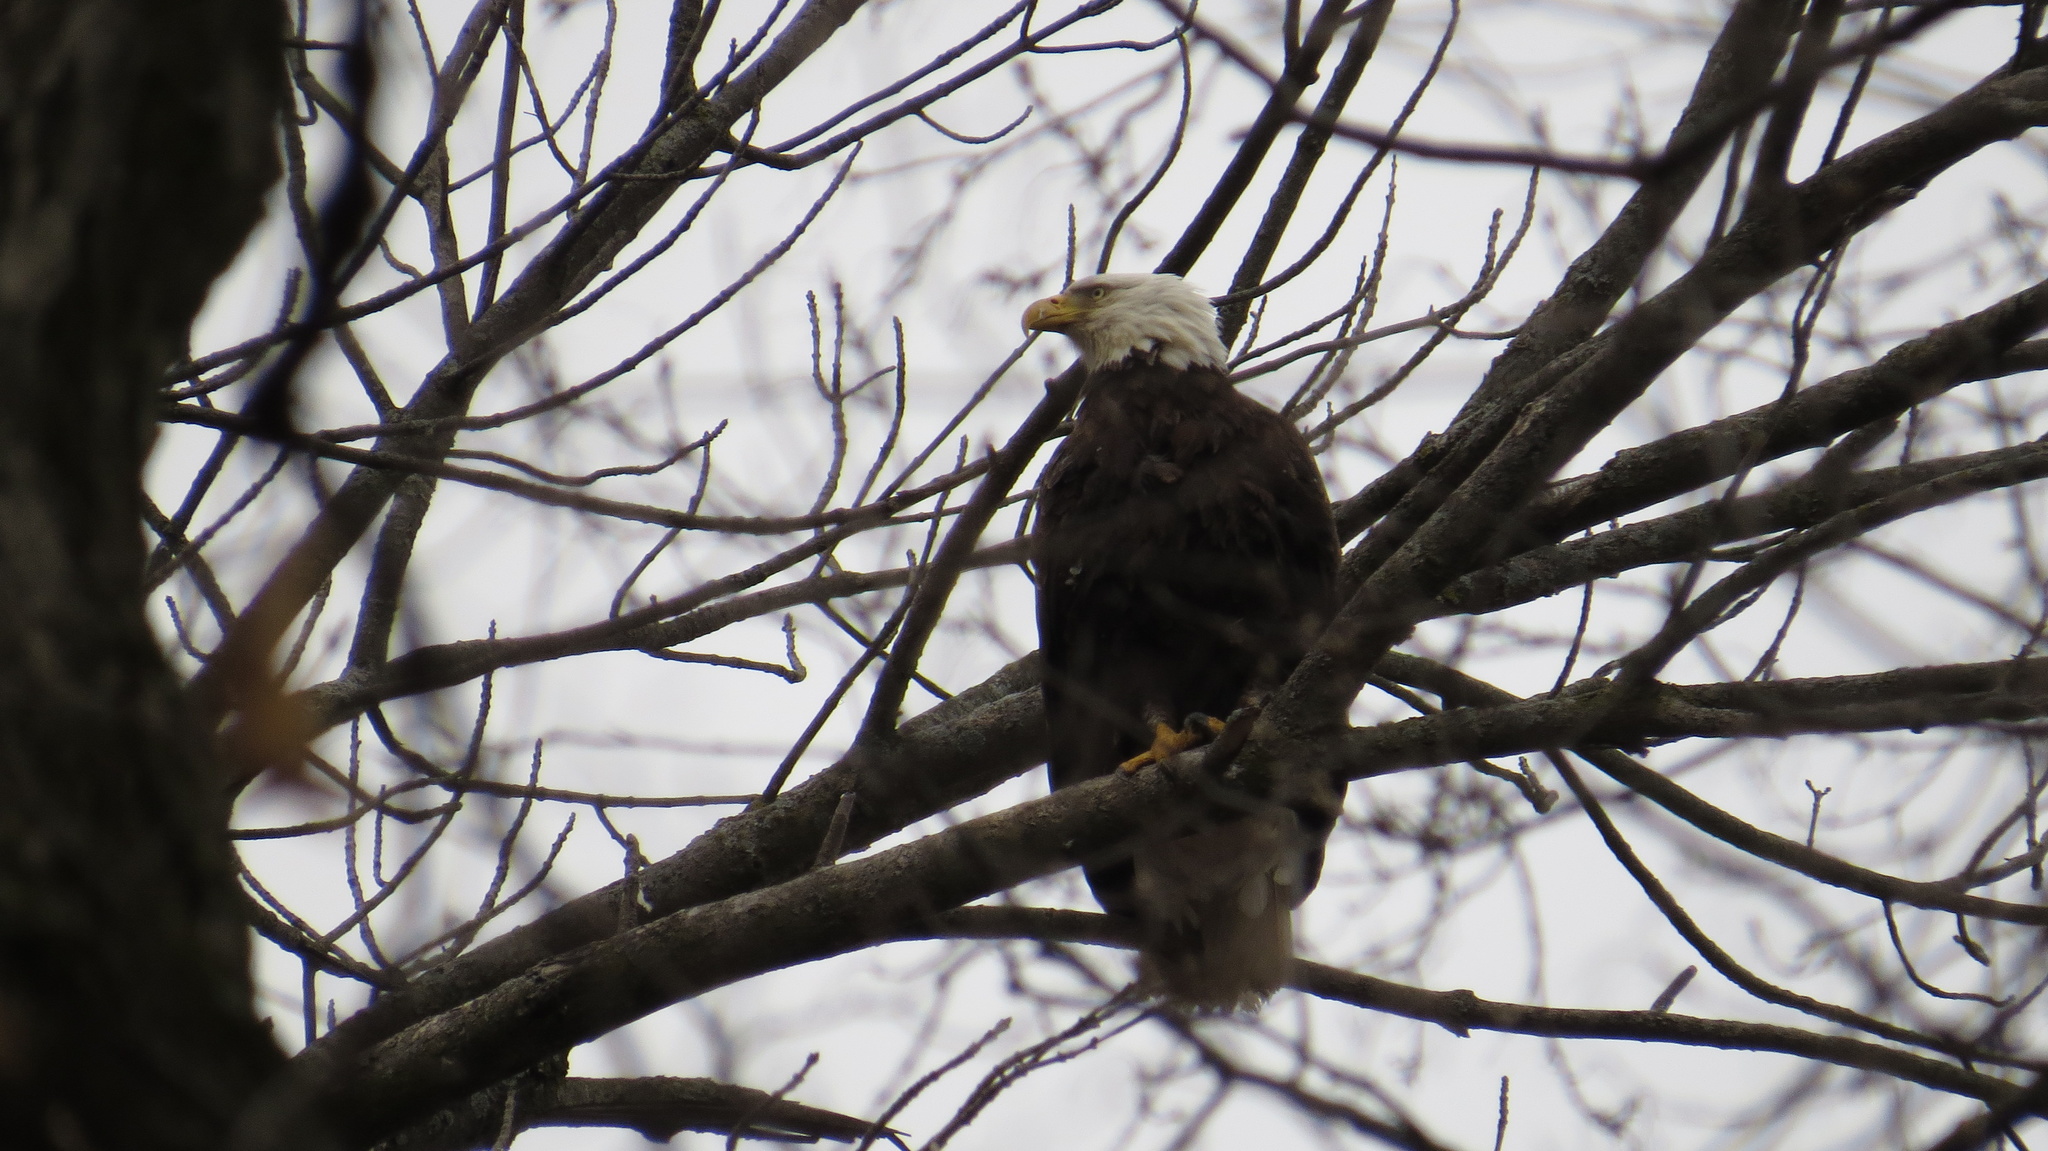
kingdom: Animalia
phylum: Chordata
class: Aves
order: Accipitriformes
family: Accipitridae
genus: Haliaeetus
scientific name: Haliaeetus leucocephalus
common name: Bald eagle
